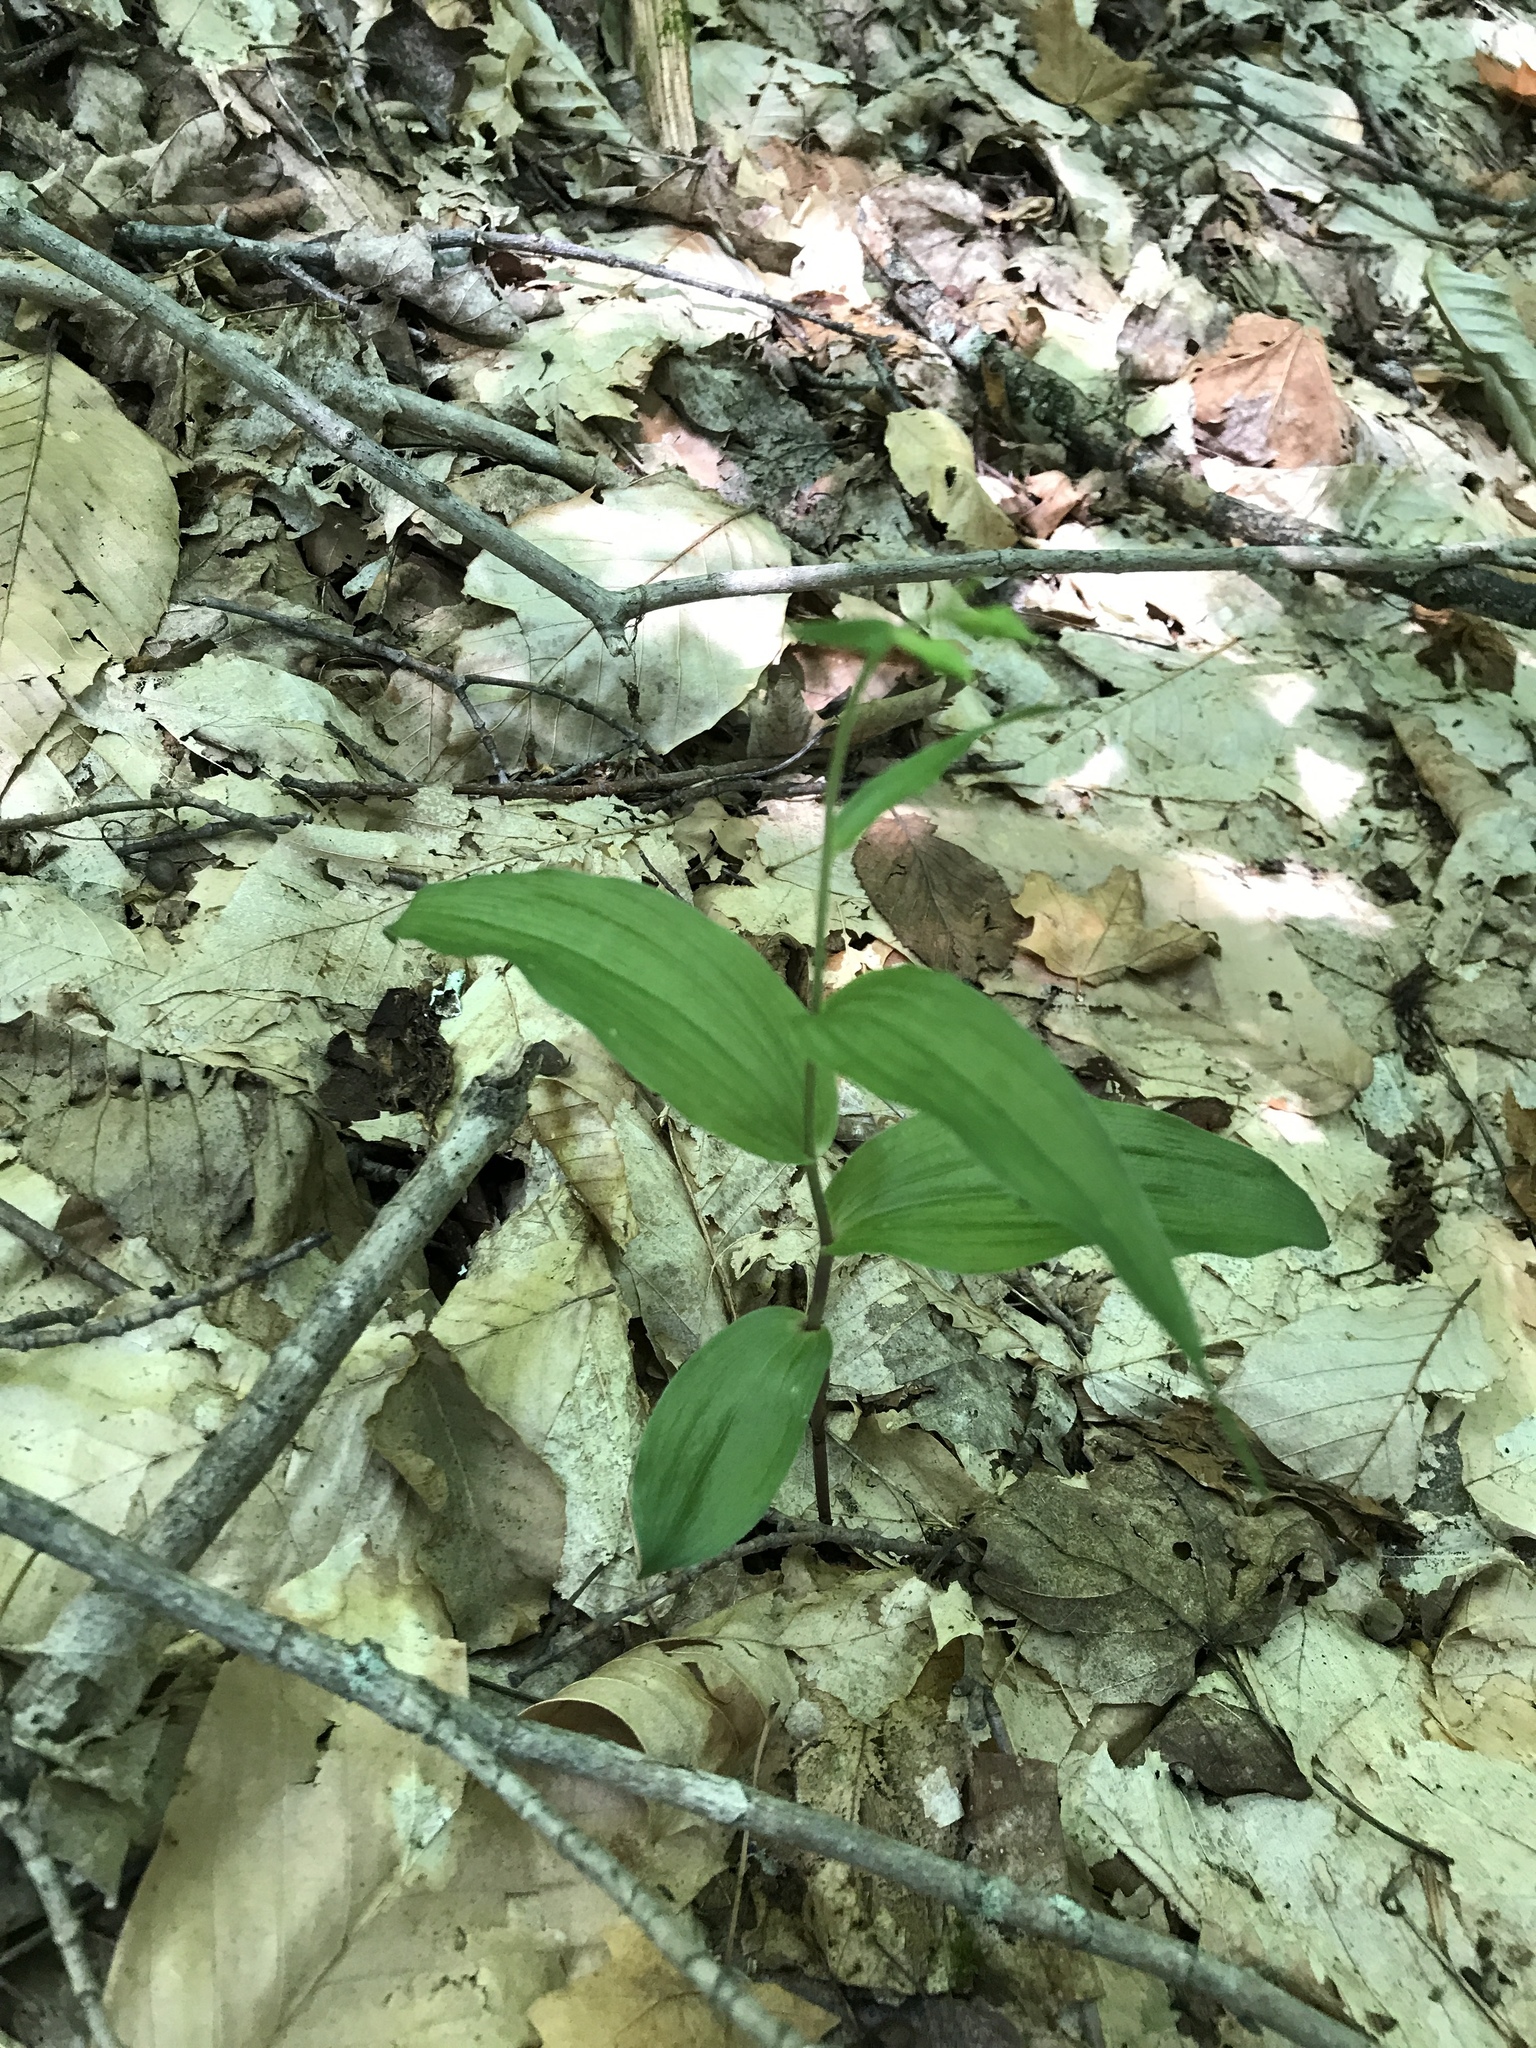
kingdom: Plantae
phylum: Tracheophyta
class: Liliopsida
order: Asparagales
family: Orchidaceae
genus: Epipactis
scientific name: Epipactis helleborine
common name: Broad-leaved helleborine
